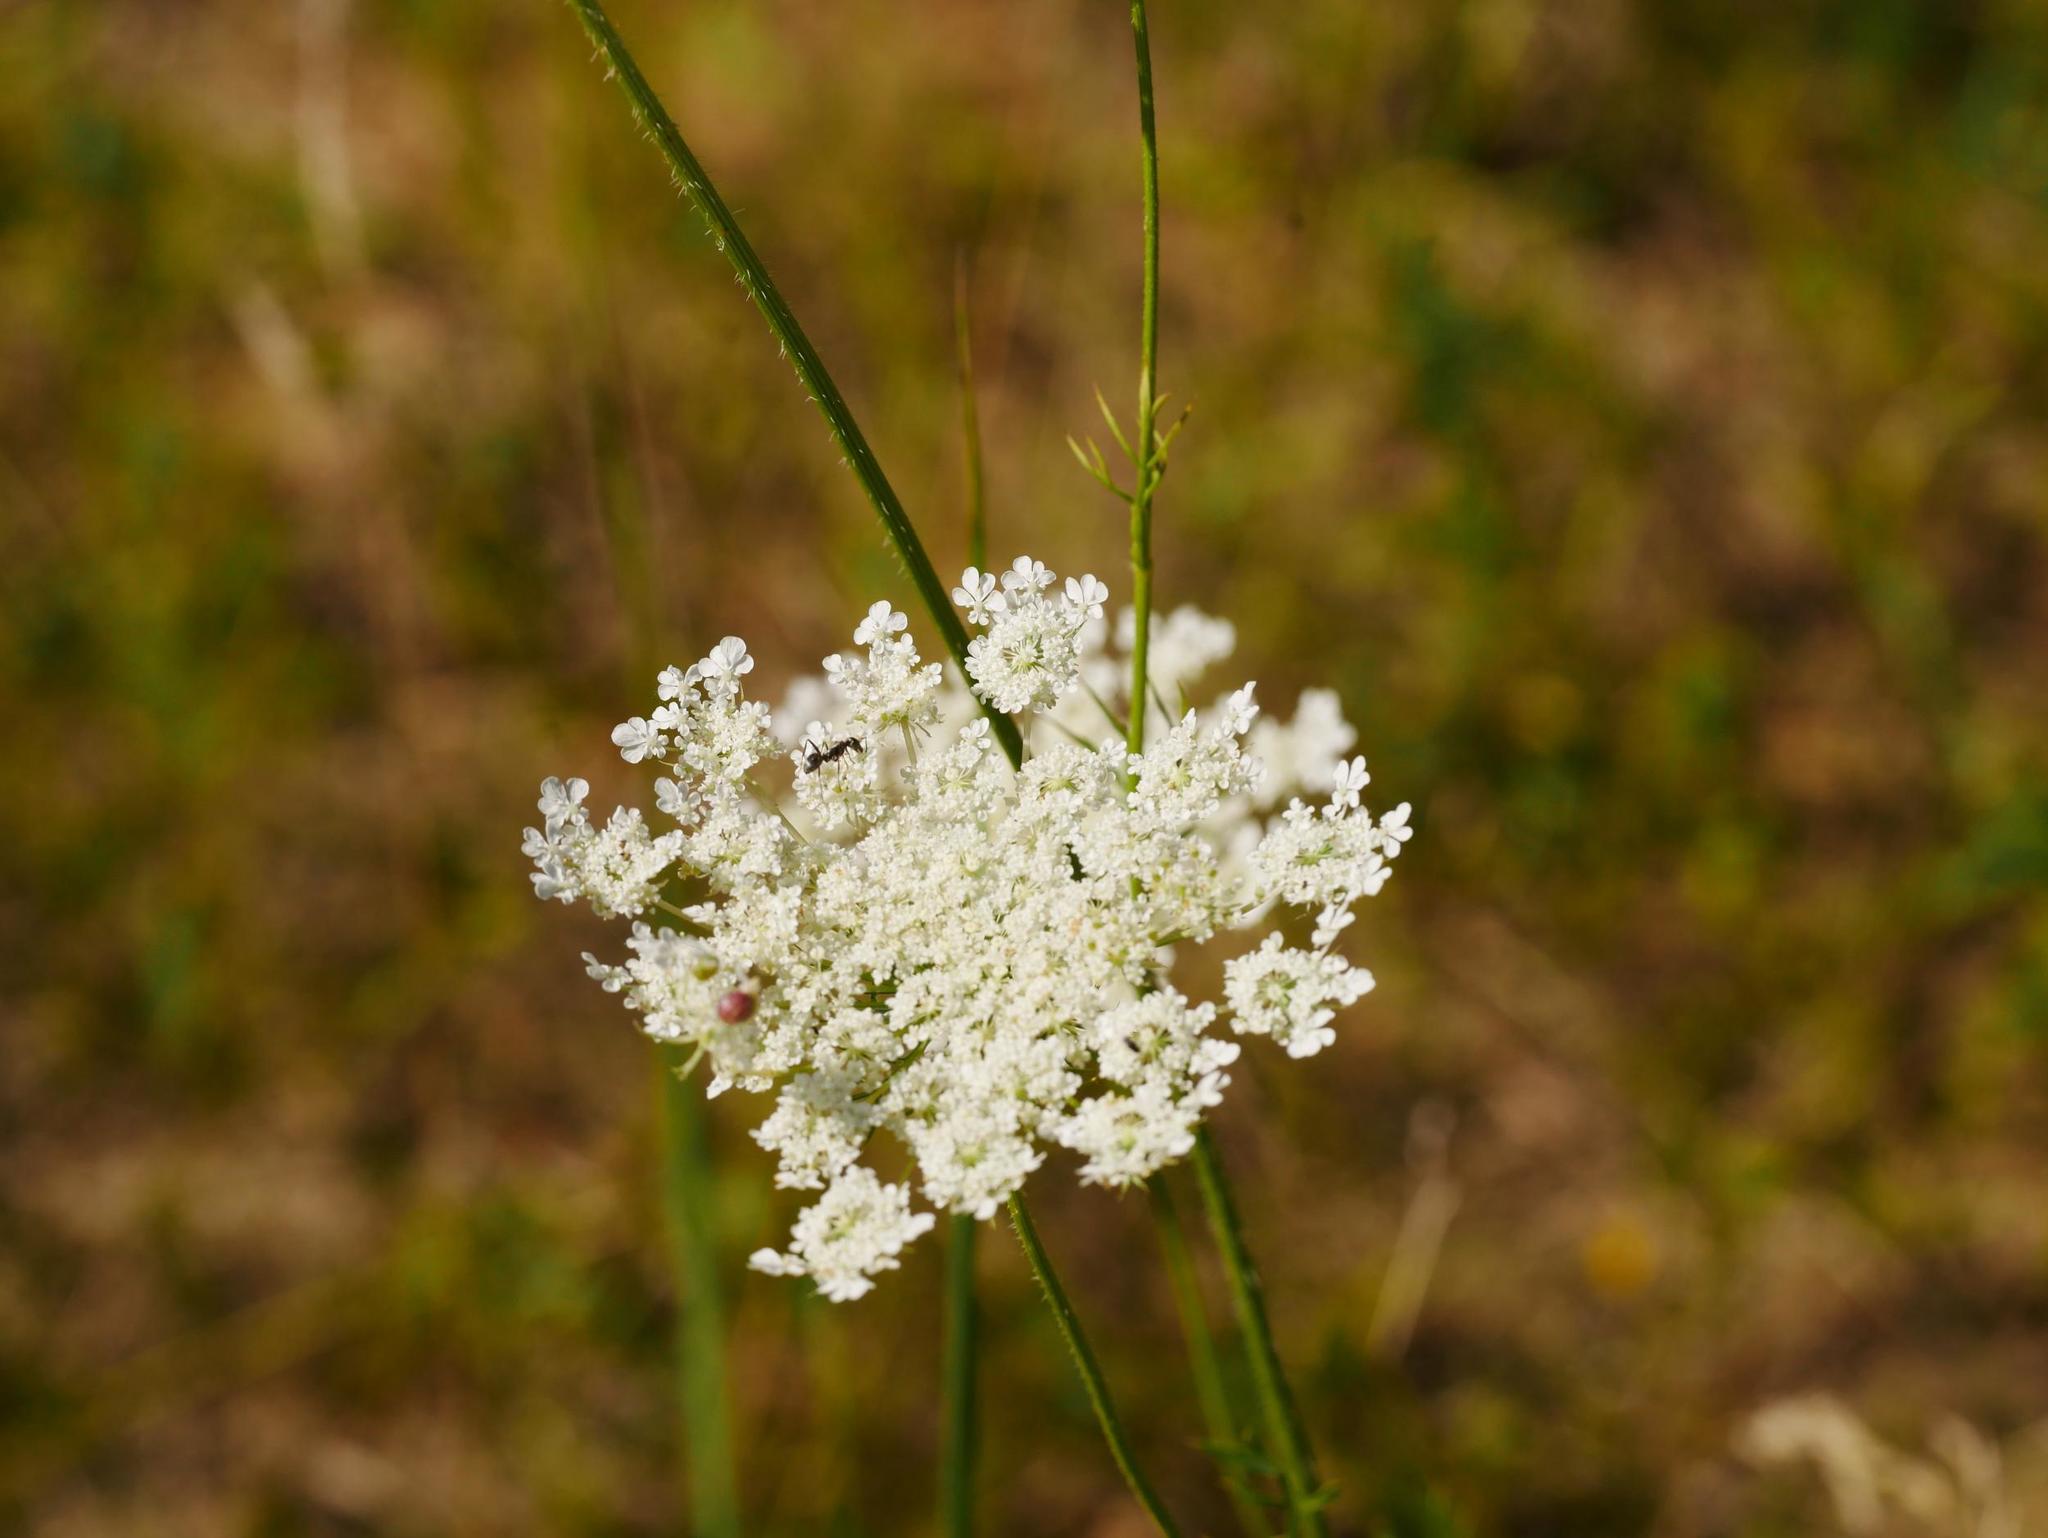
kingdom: Plantae
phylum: Tracheophyta
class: Magnoliopsida
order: Apiales
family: Apiaceae
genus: Daucus
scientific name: Daucus carota
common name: Wild carrot
